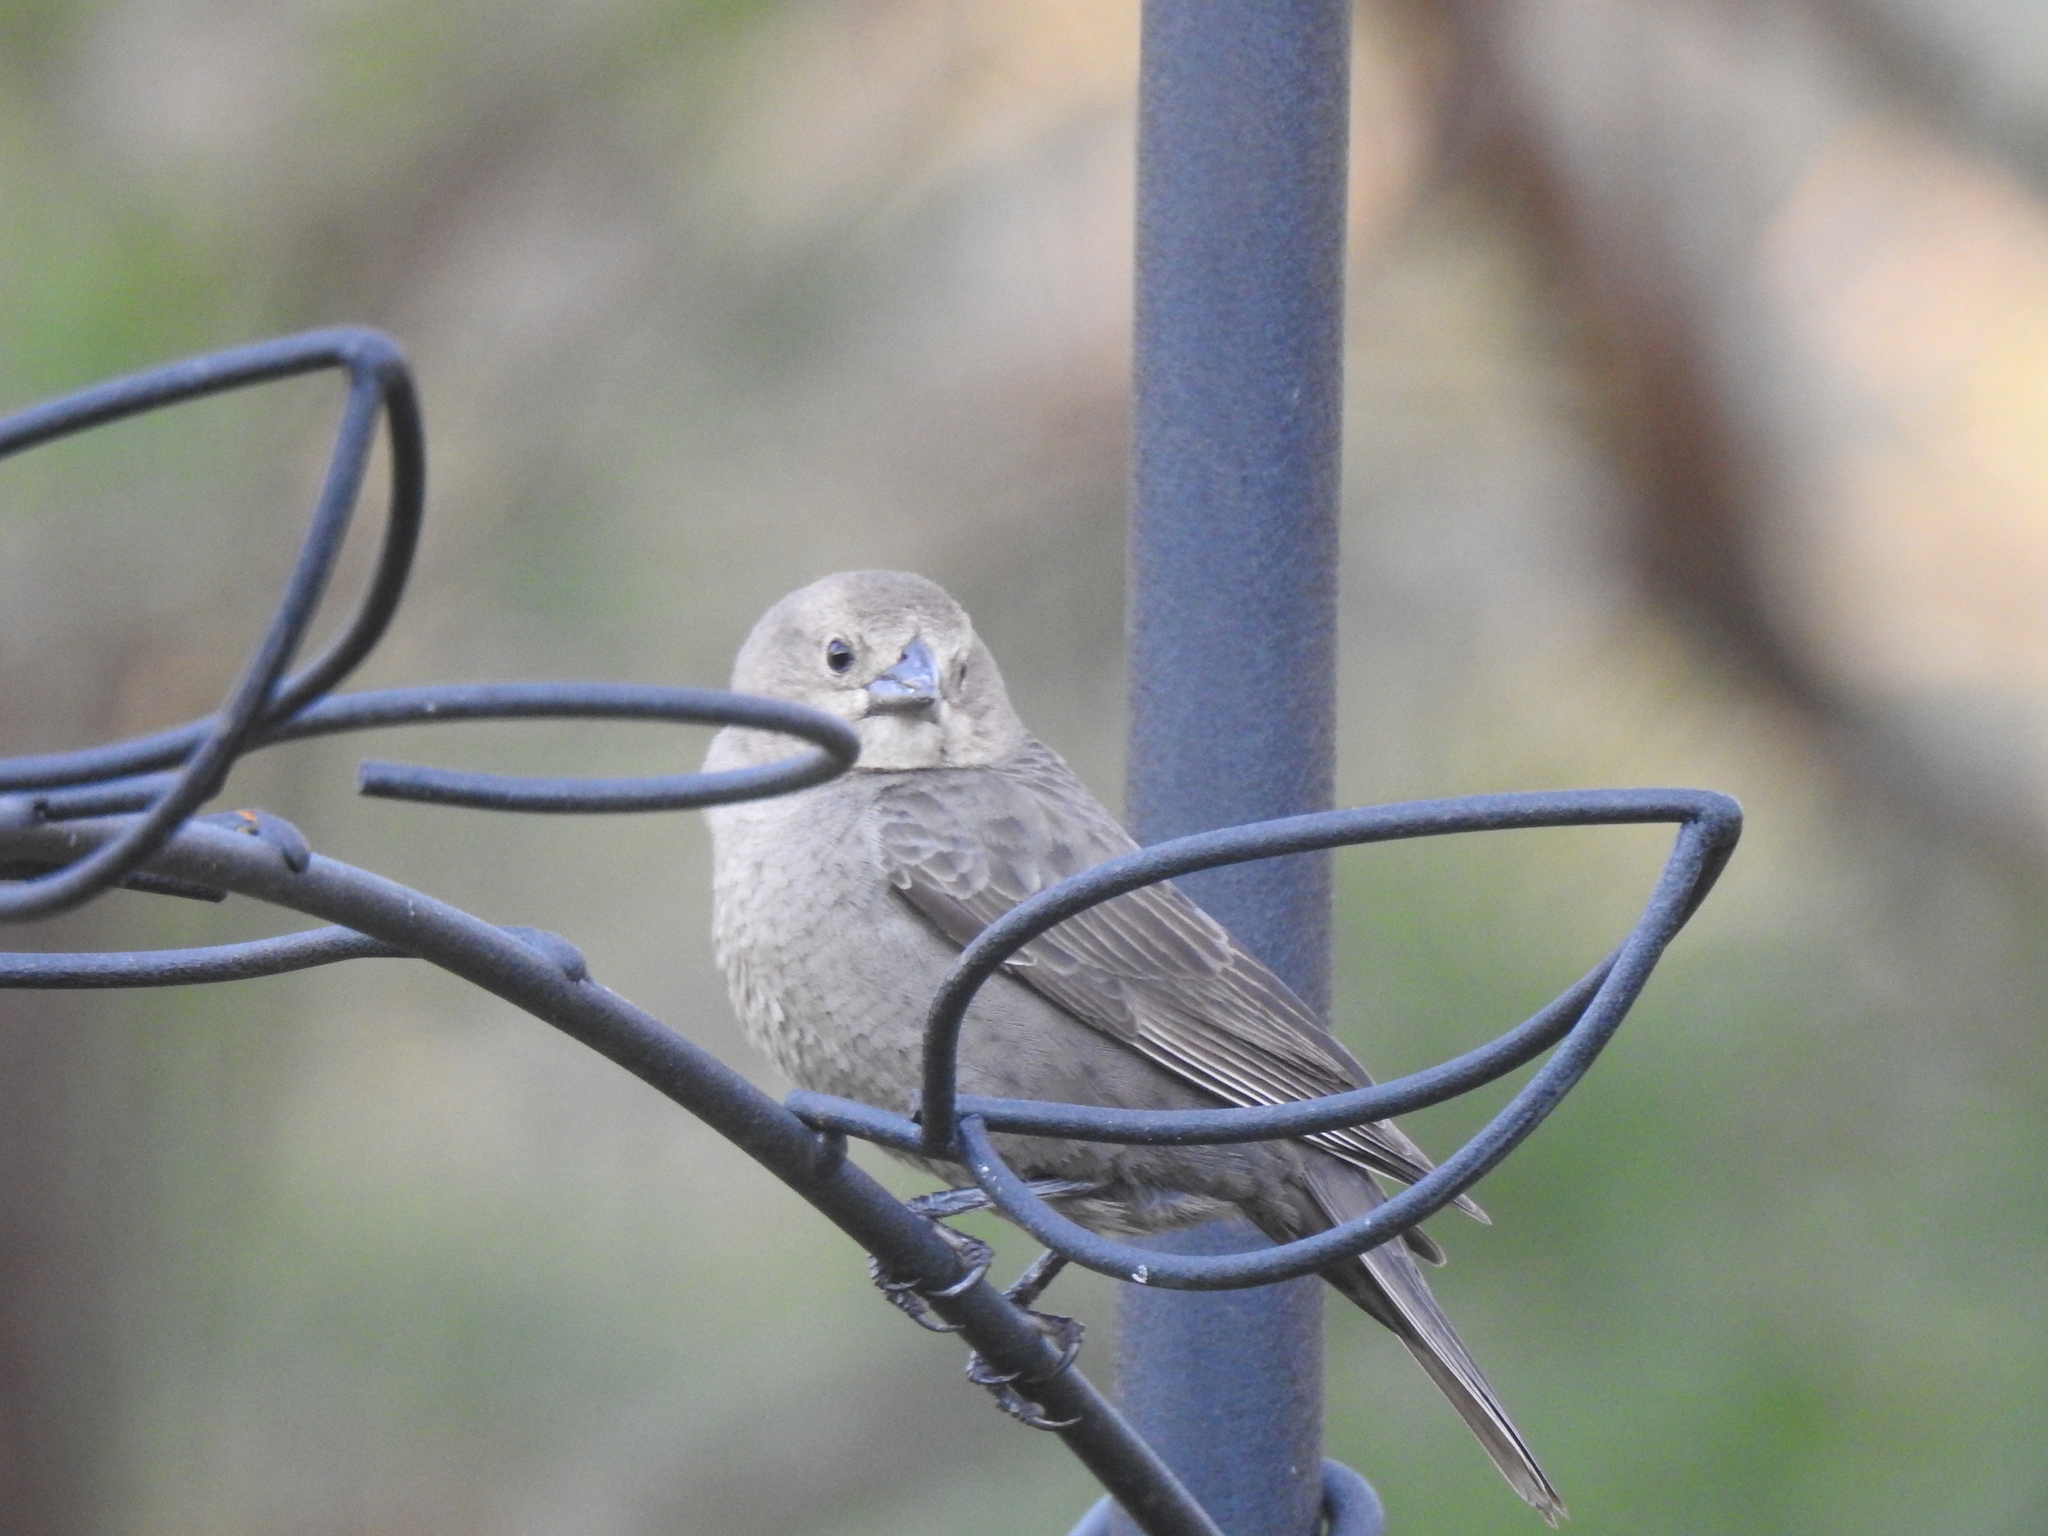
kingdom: Animalia
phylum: Chordata
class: Aves
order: Passeriformes
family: Icteridae
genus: Molothrus
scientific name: Molothrus ater
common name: Brown-headed cowbird
